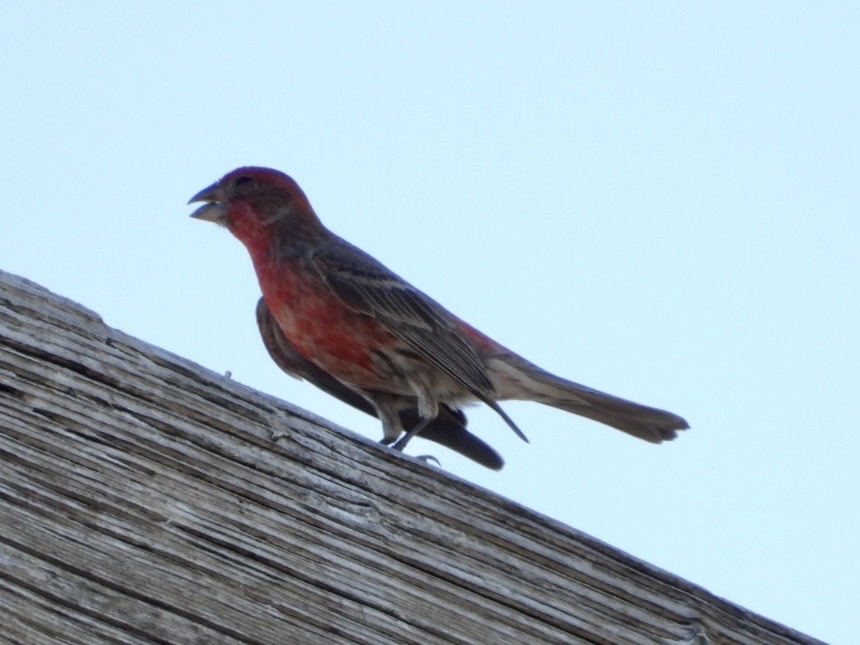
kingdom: Animalia
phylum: Chordata
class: Aves
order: Passeriformes
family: Fringillidae
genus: Haemorhous
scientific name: Haemorhous mexicanus
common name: House finch
